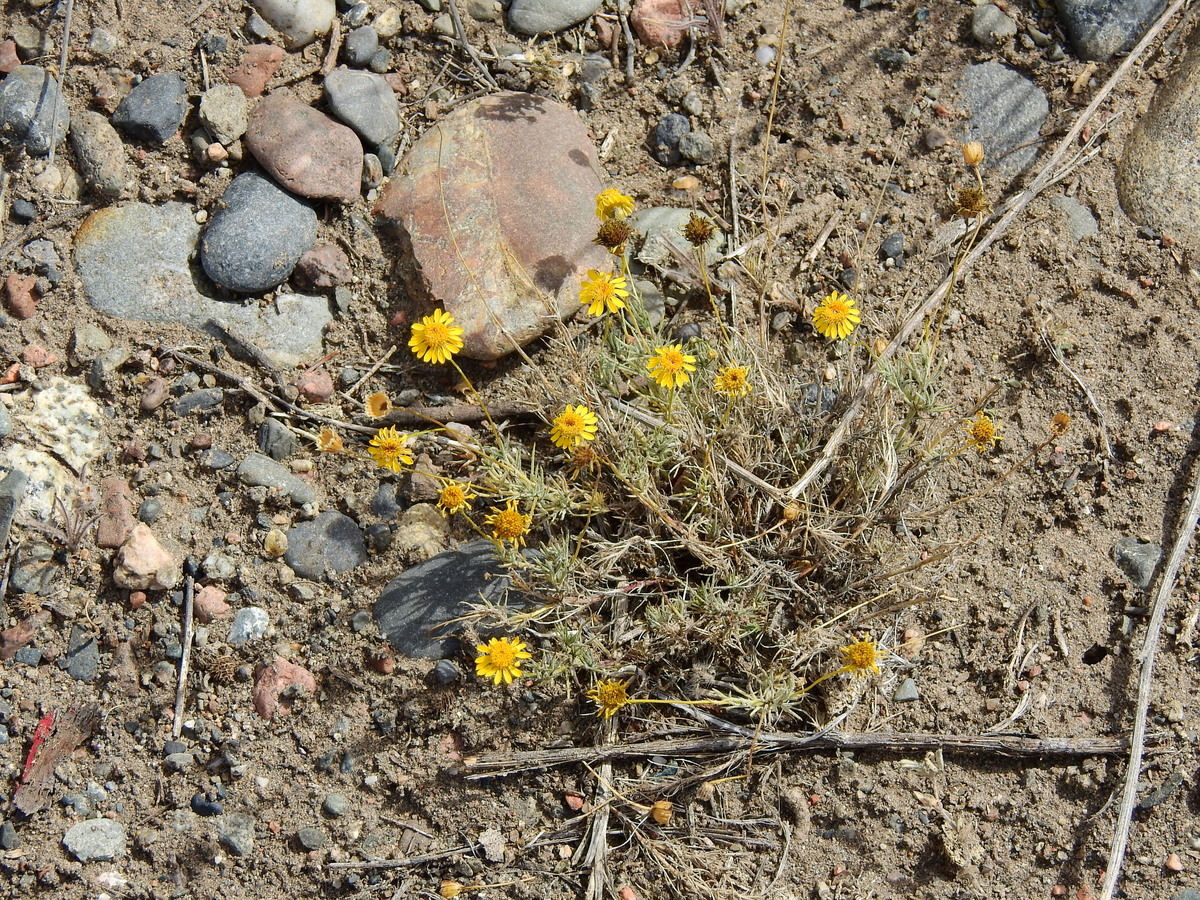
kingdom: Plantae
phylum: Tracheophyta
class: Magnoliopsida
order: Asterales
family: Asteraceae
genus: Thymophylla
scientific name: Thymophylla pentachaeta
